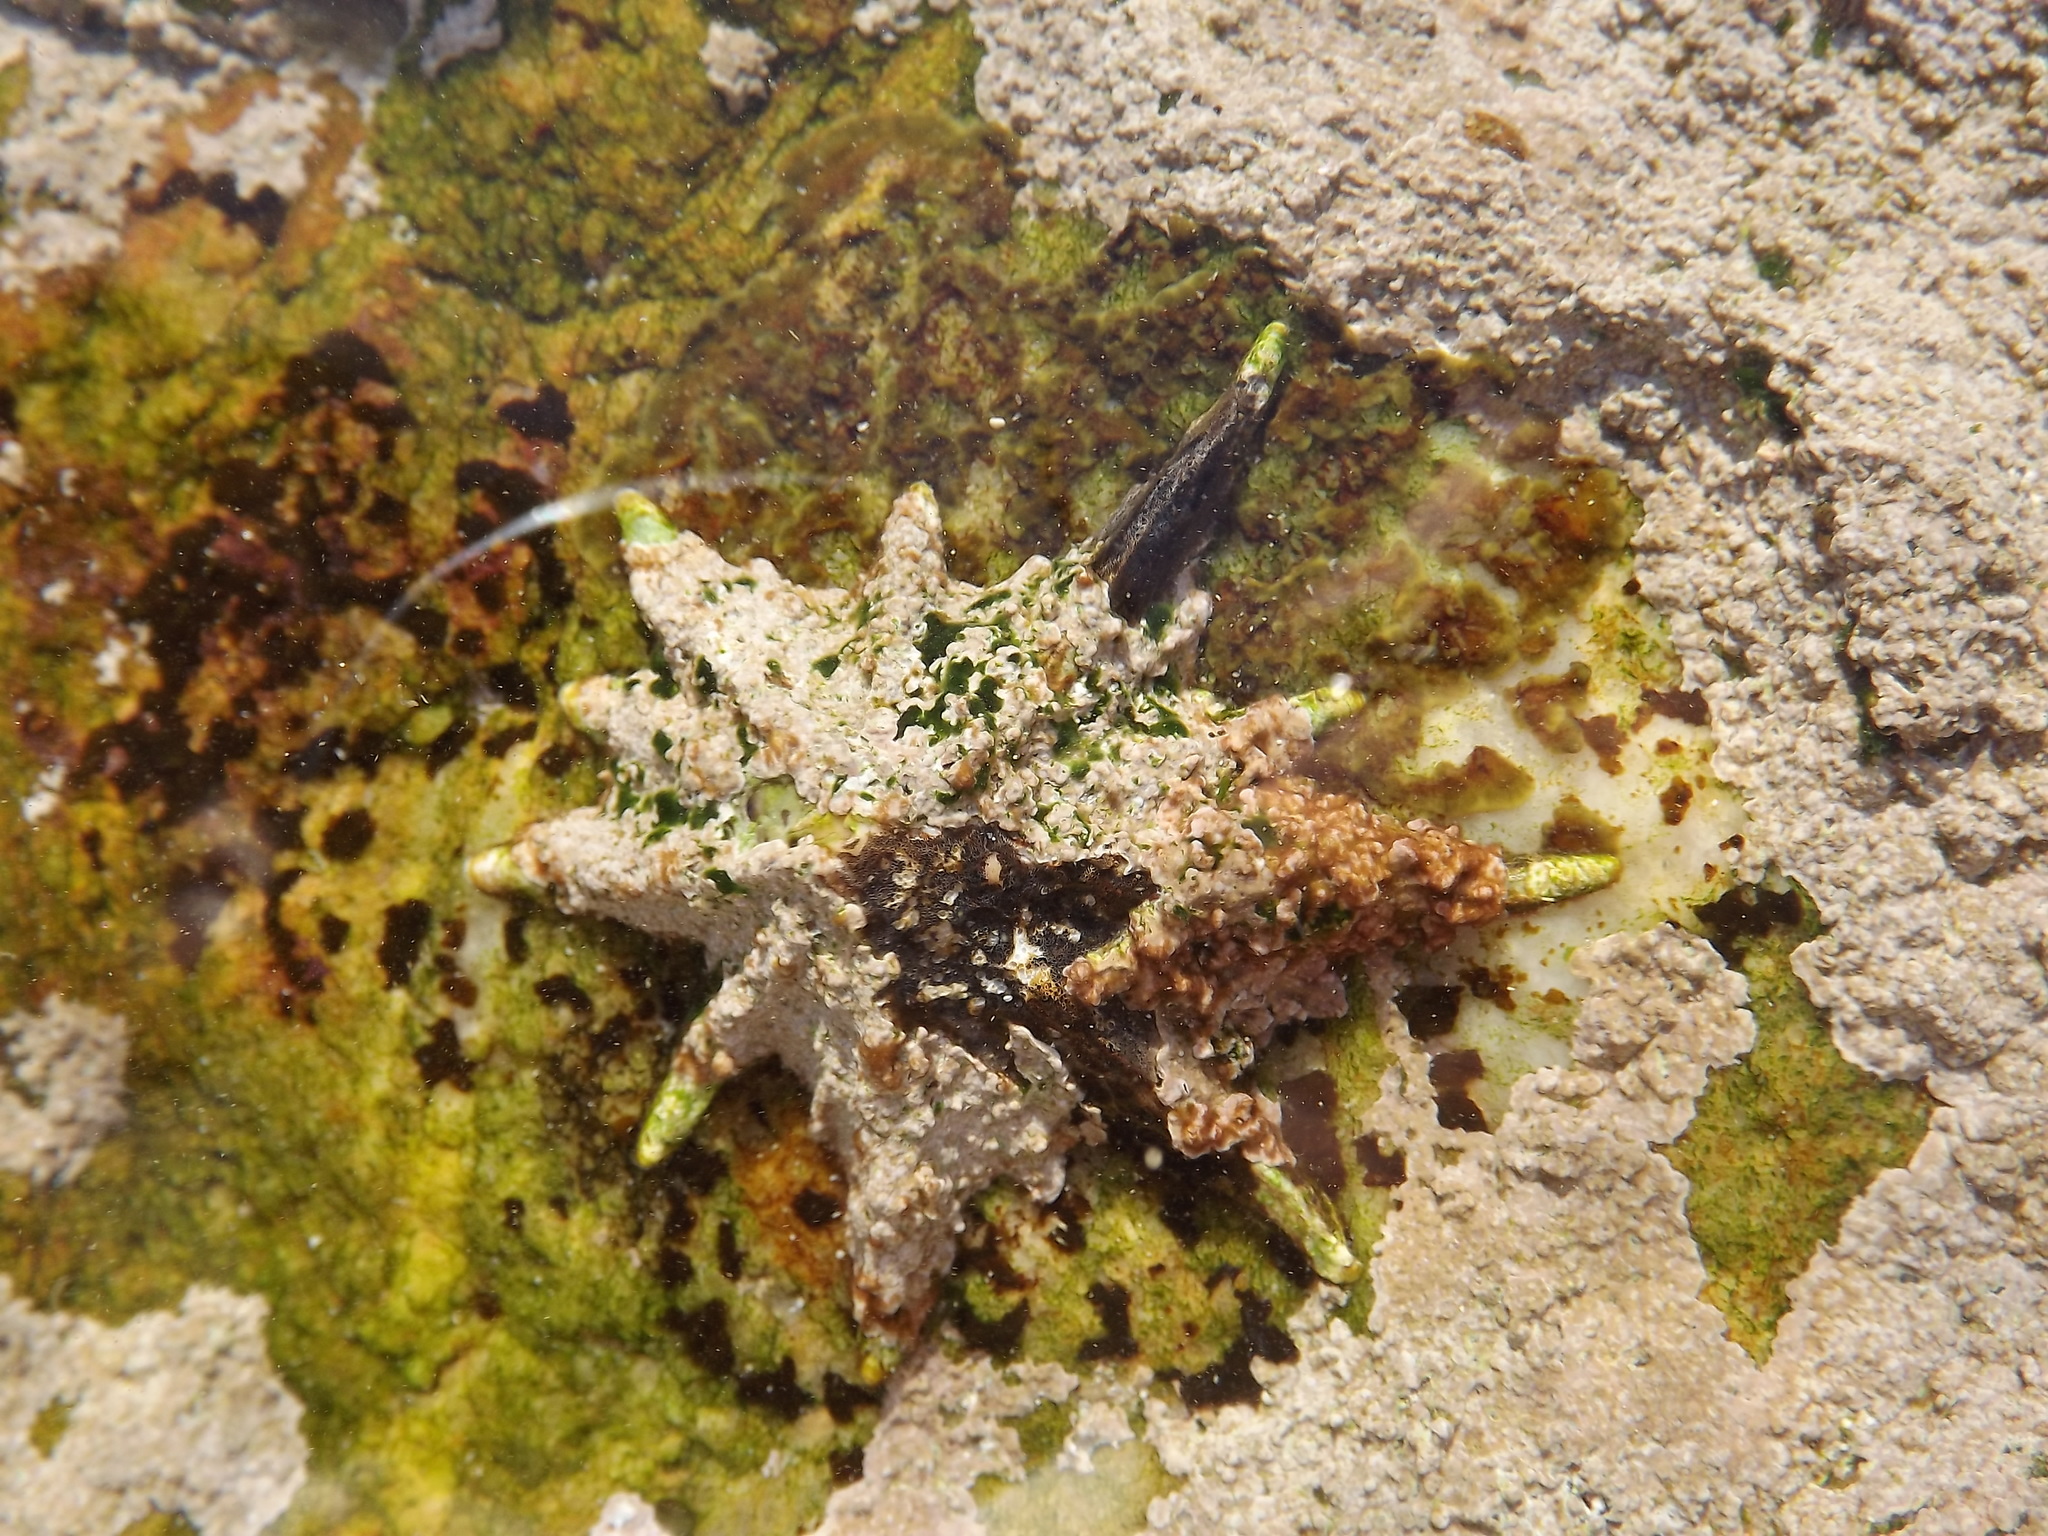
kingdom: Animalia
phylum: Mollusca
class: Gastropoda
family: Patellidae
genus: Scutellastra
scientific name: Scutellastra longicosta
